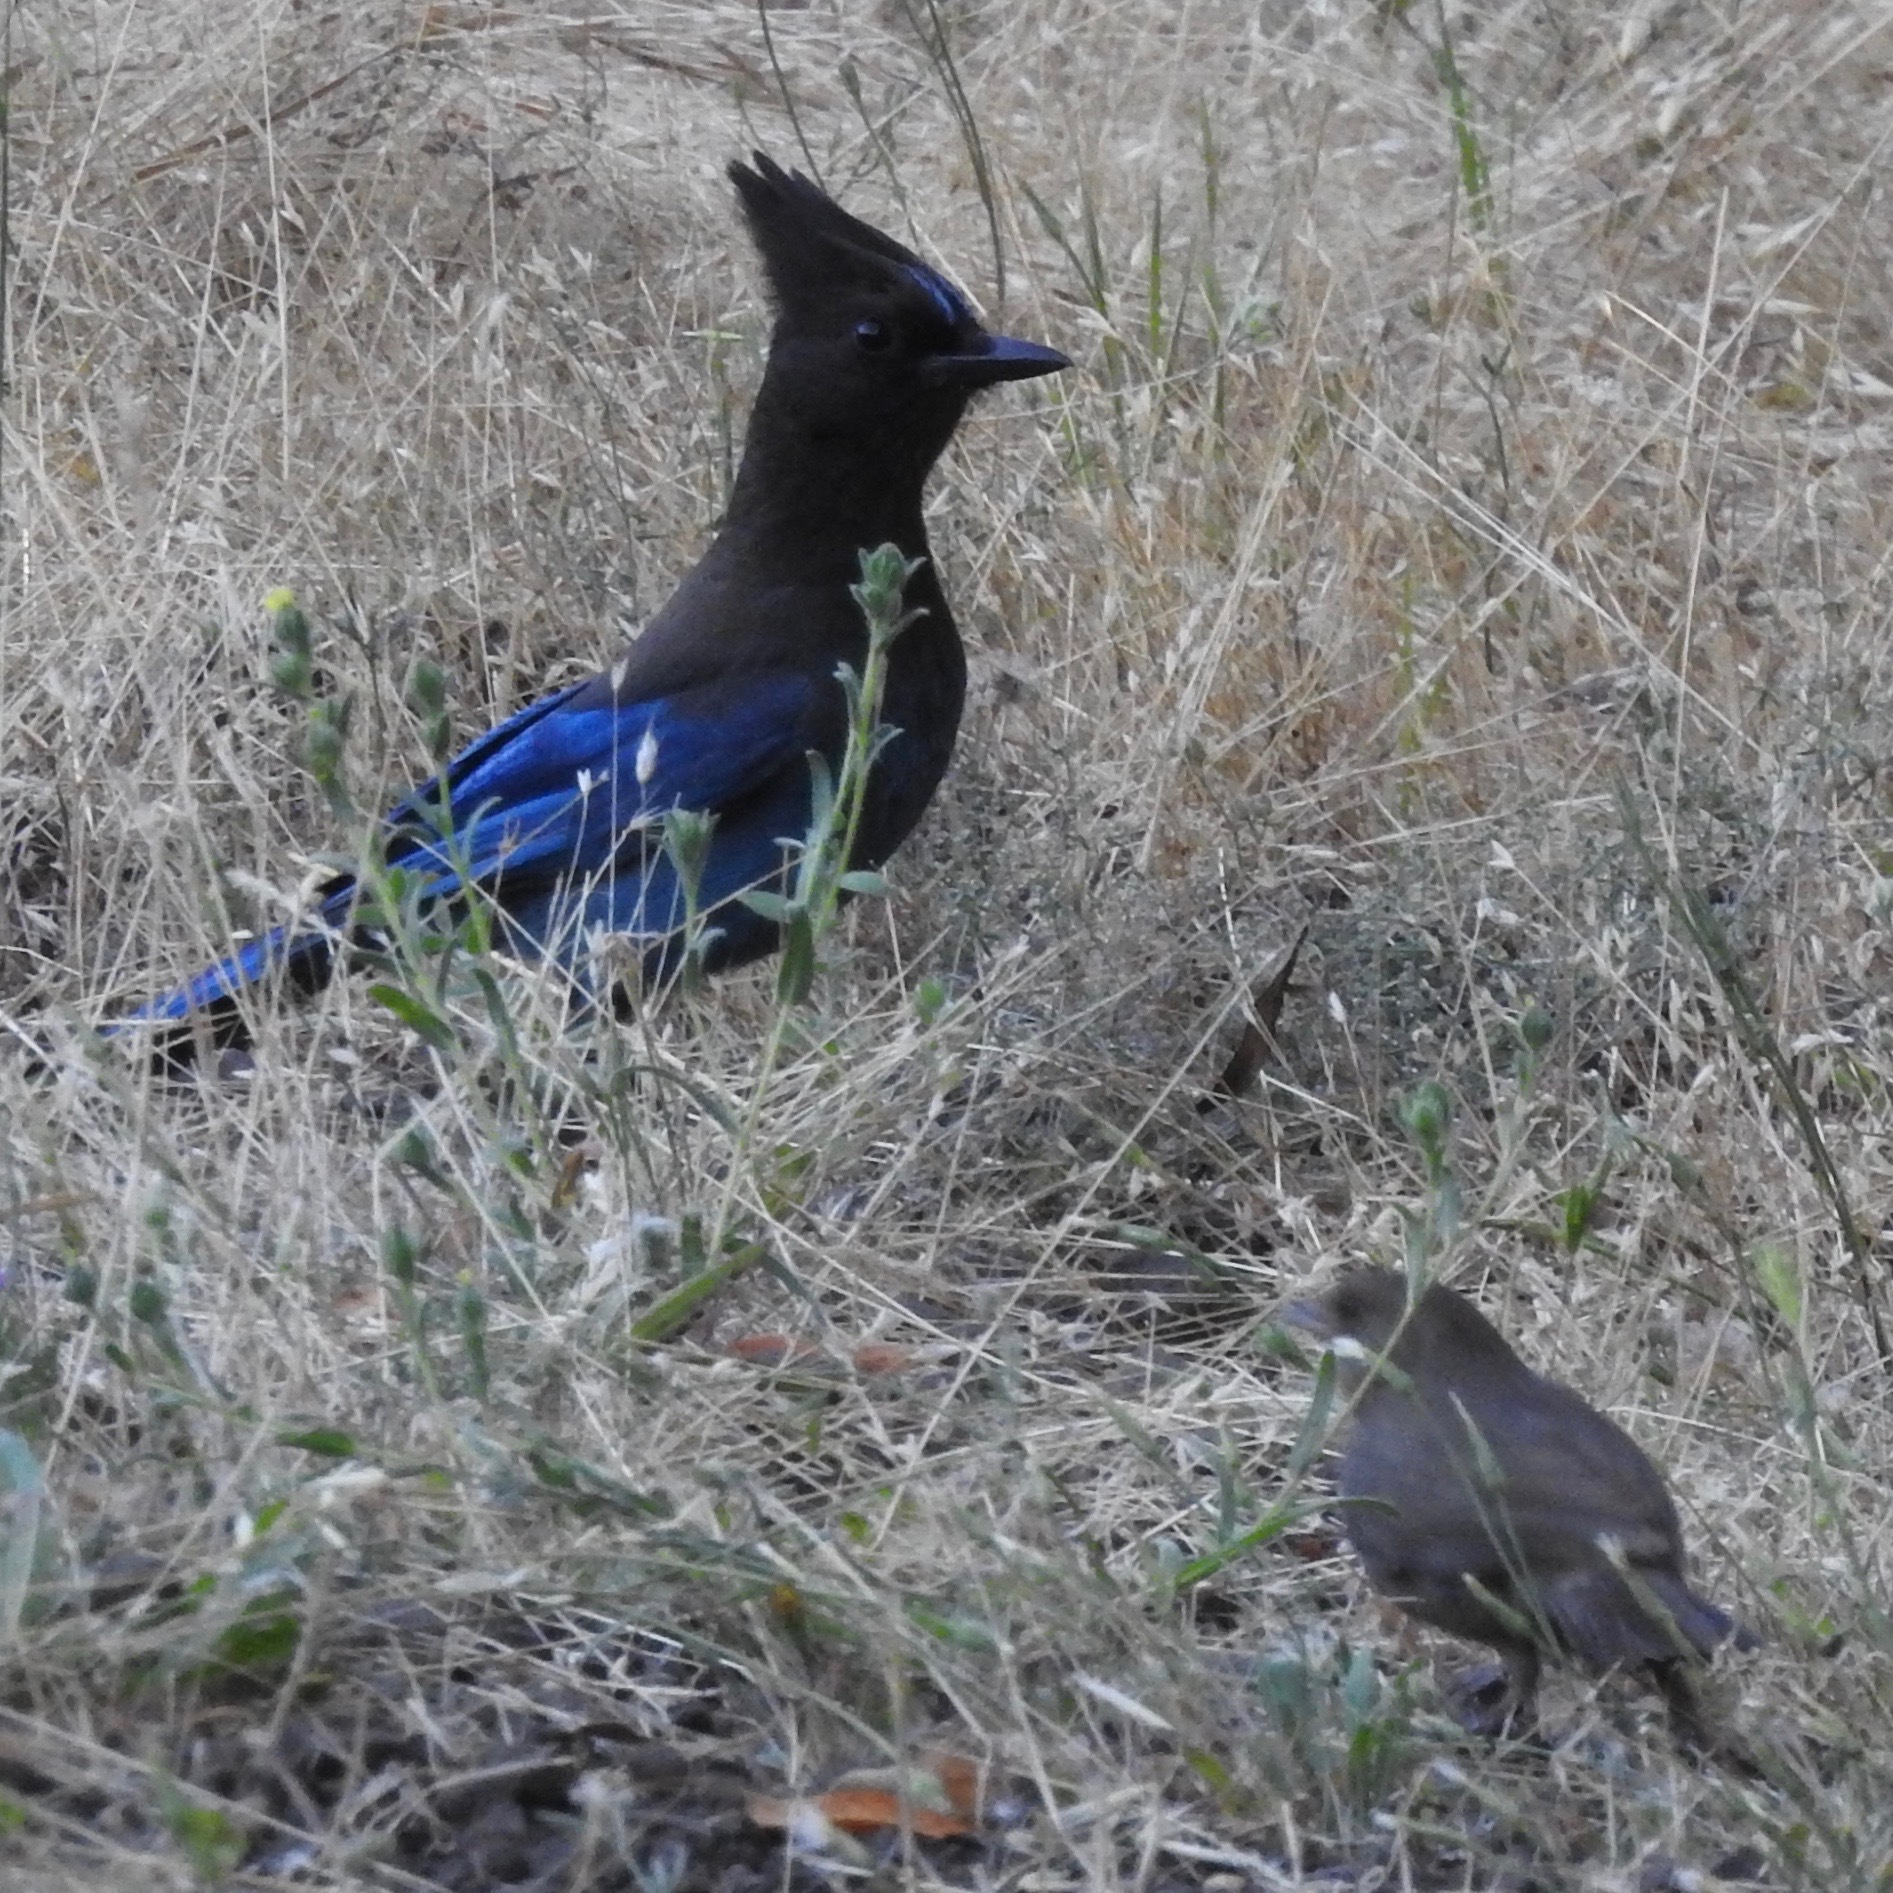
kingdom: Animalia
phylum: Chordata
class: Aves
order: Passeriformes
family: Corvidae
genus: Cyanocitta
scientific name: Cyanocitta stelleri
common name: Steller's jay
